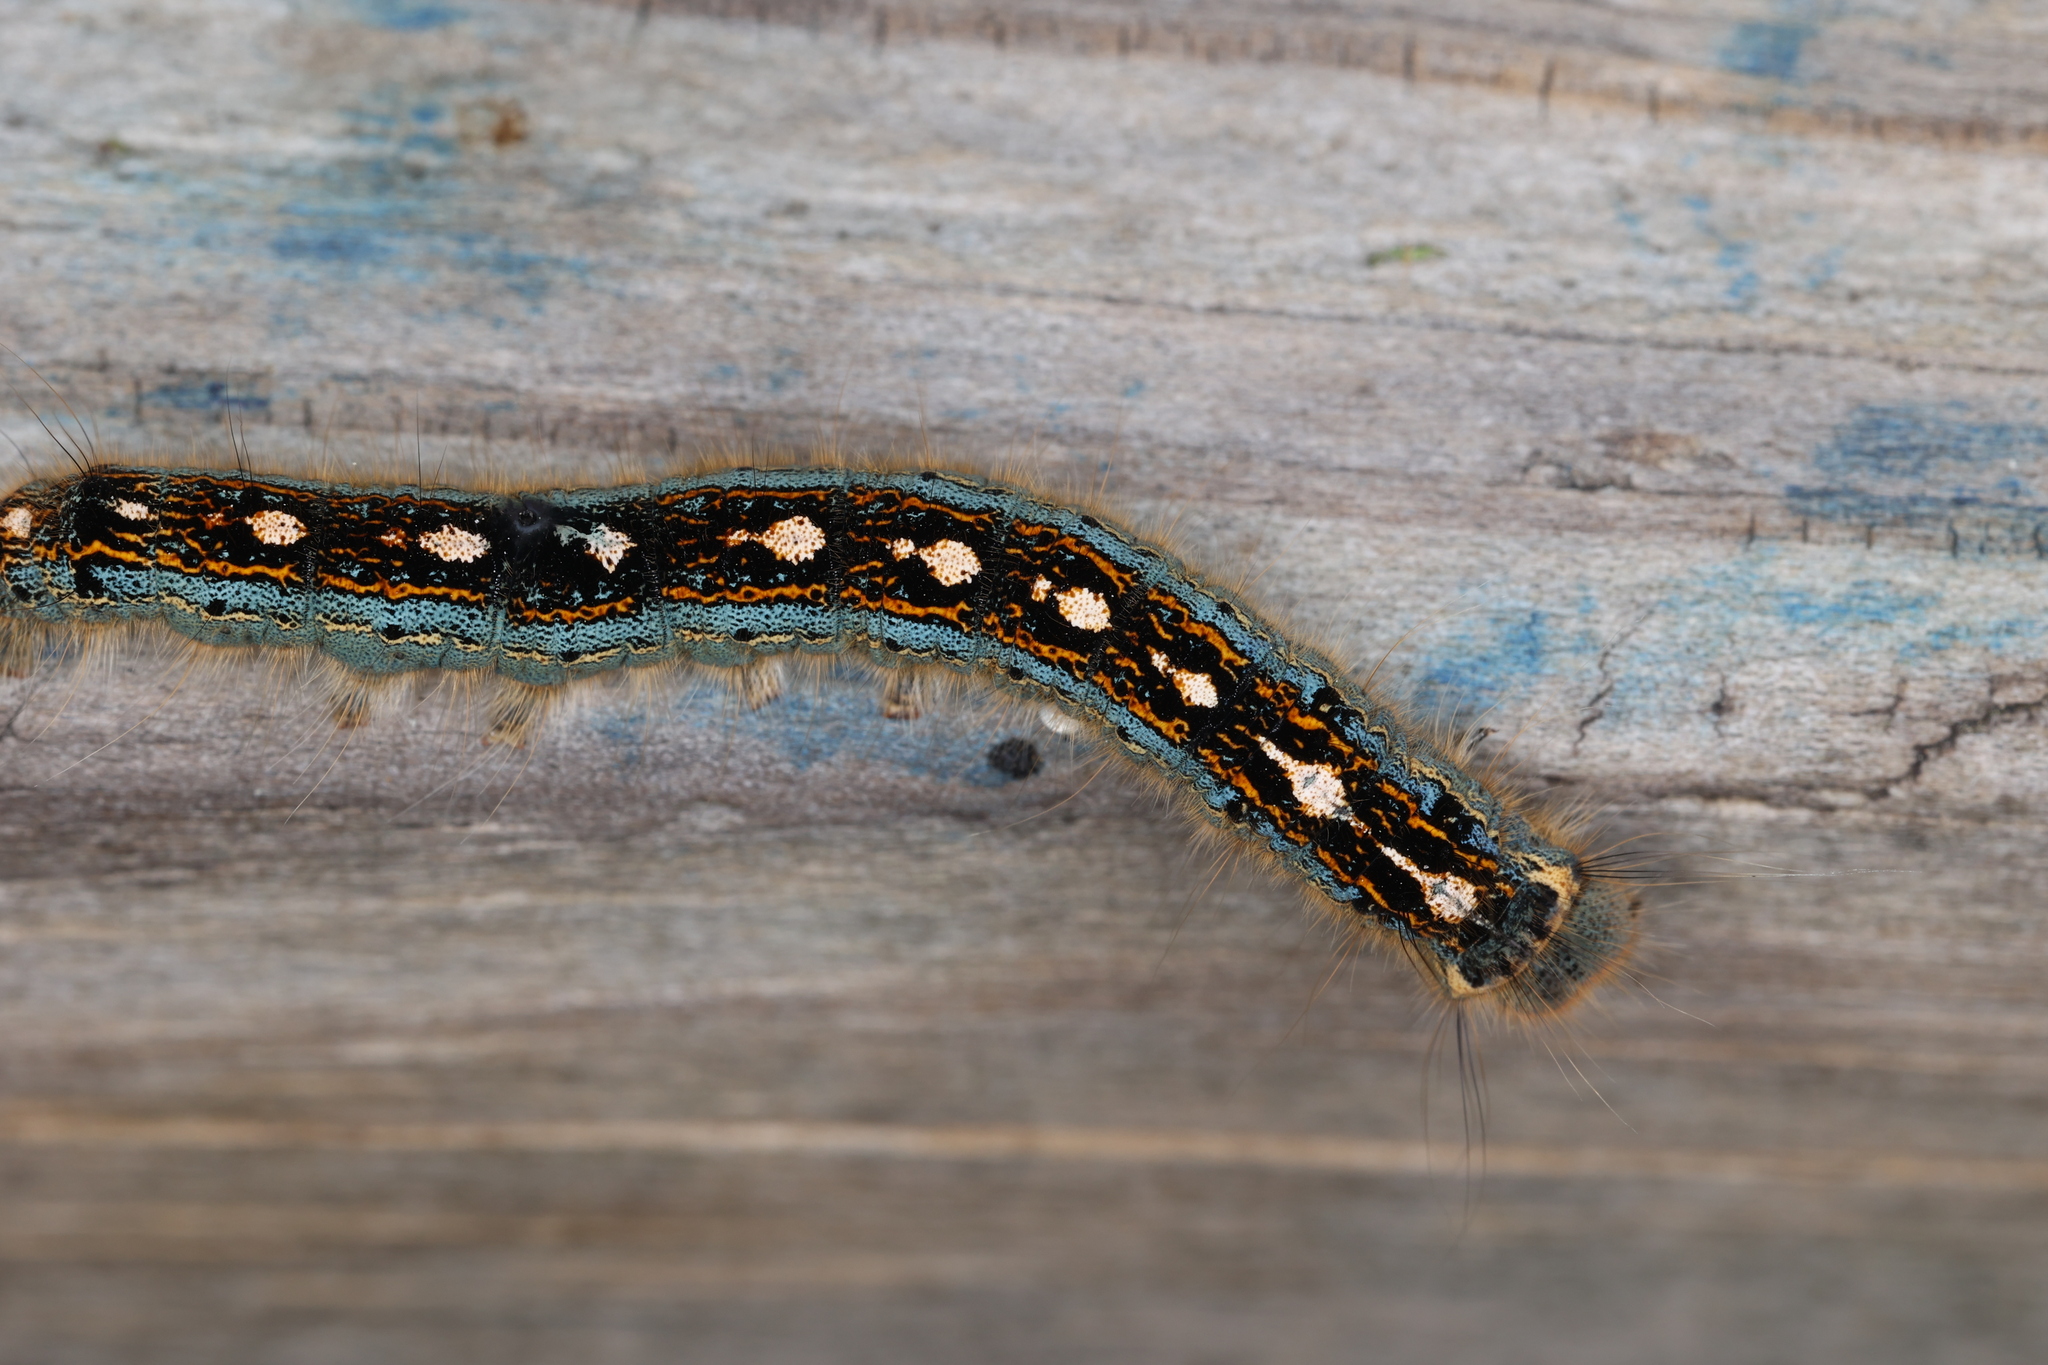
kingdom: Animalia
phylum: Arthropoda
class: Insecta
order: Lepidoptera
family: Lasiocampidae
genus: Malacosoma
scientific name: Malacosoma disstria
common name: Forest tent caterpillar
